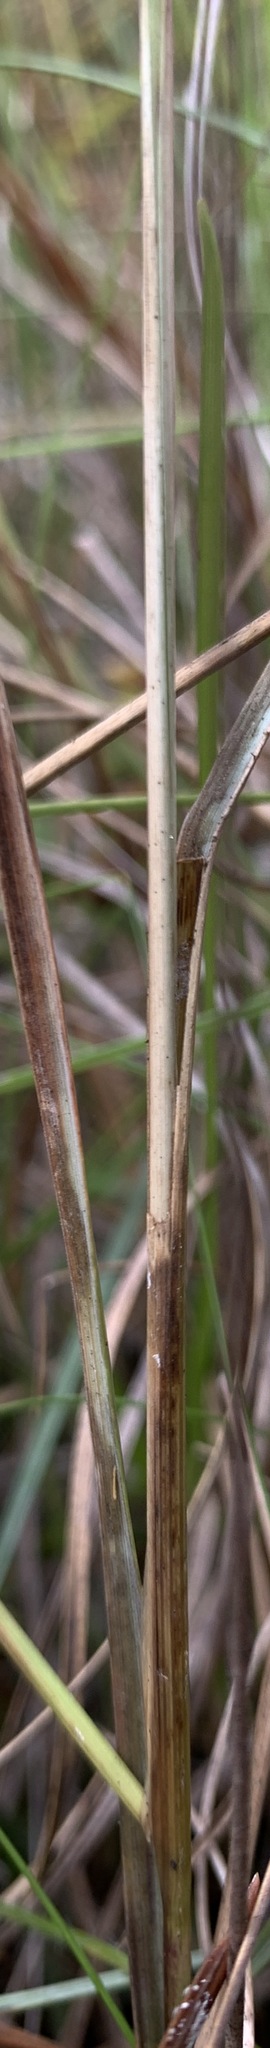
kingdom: Plantae
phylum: Tracheophyta
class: Liliopsida
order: Poales
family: Poaceae
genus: Aristida
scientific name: Aristida spiciformis
